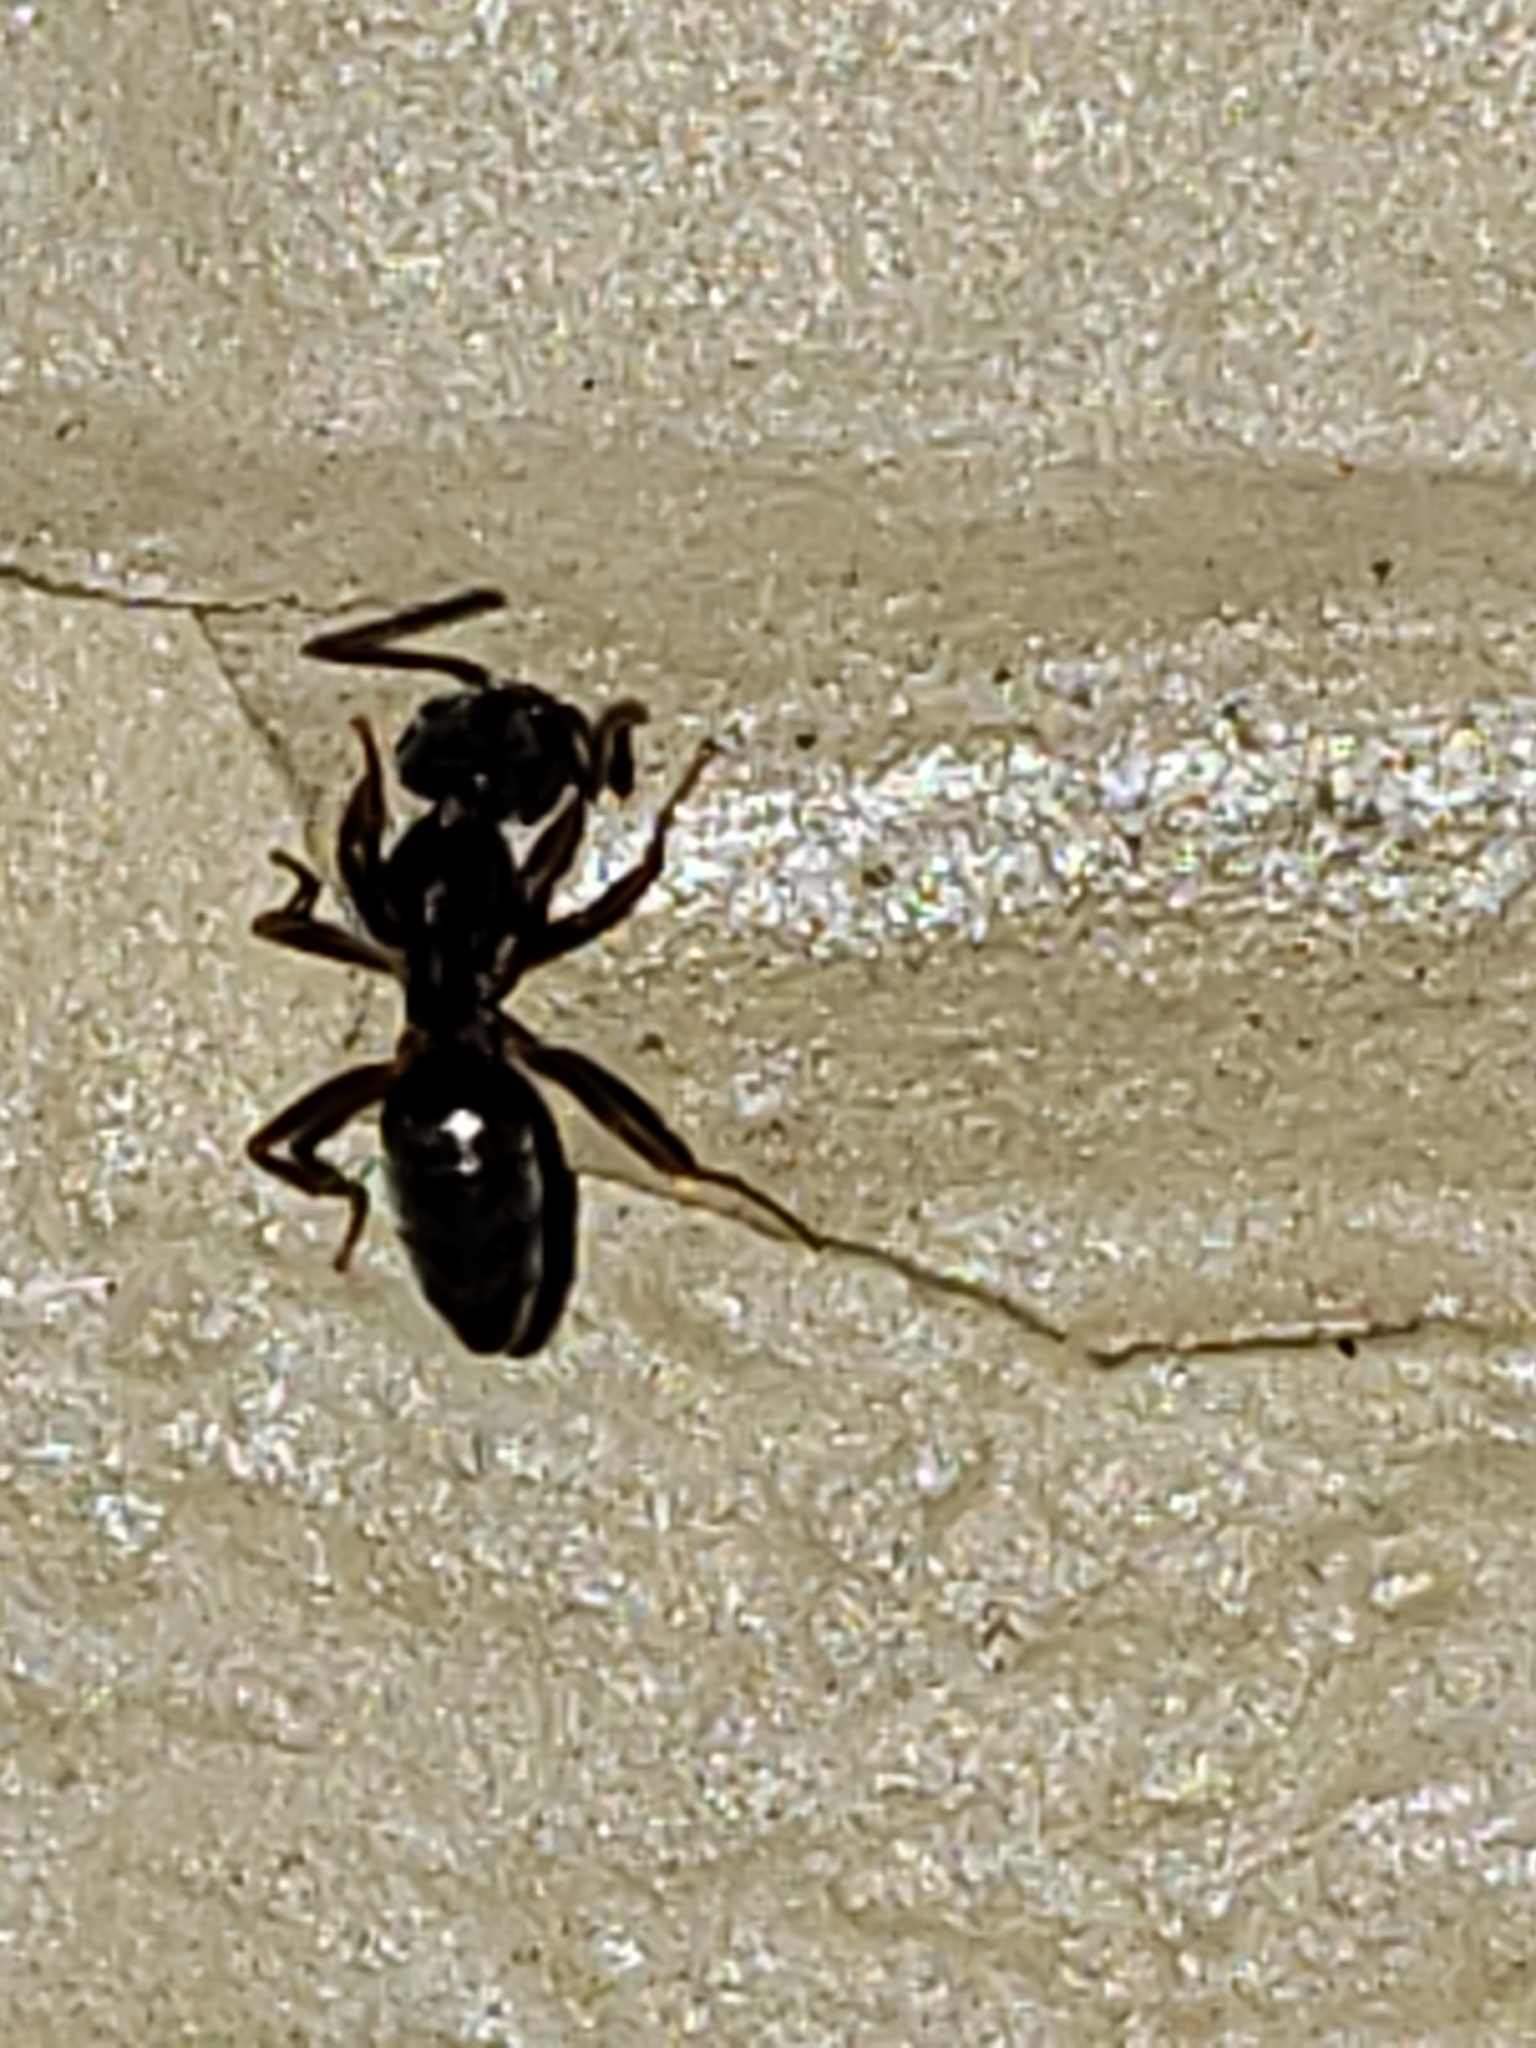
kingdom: Animalia
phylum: Arthropoda
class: Insecta
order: Hymenoptera
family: Formicidae
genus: Tapinoma
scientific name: Tapinoma sessile
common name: Odorous house ant
